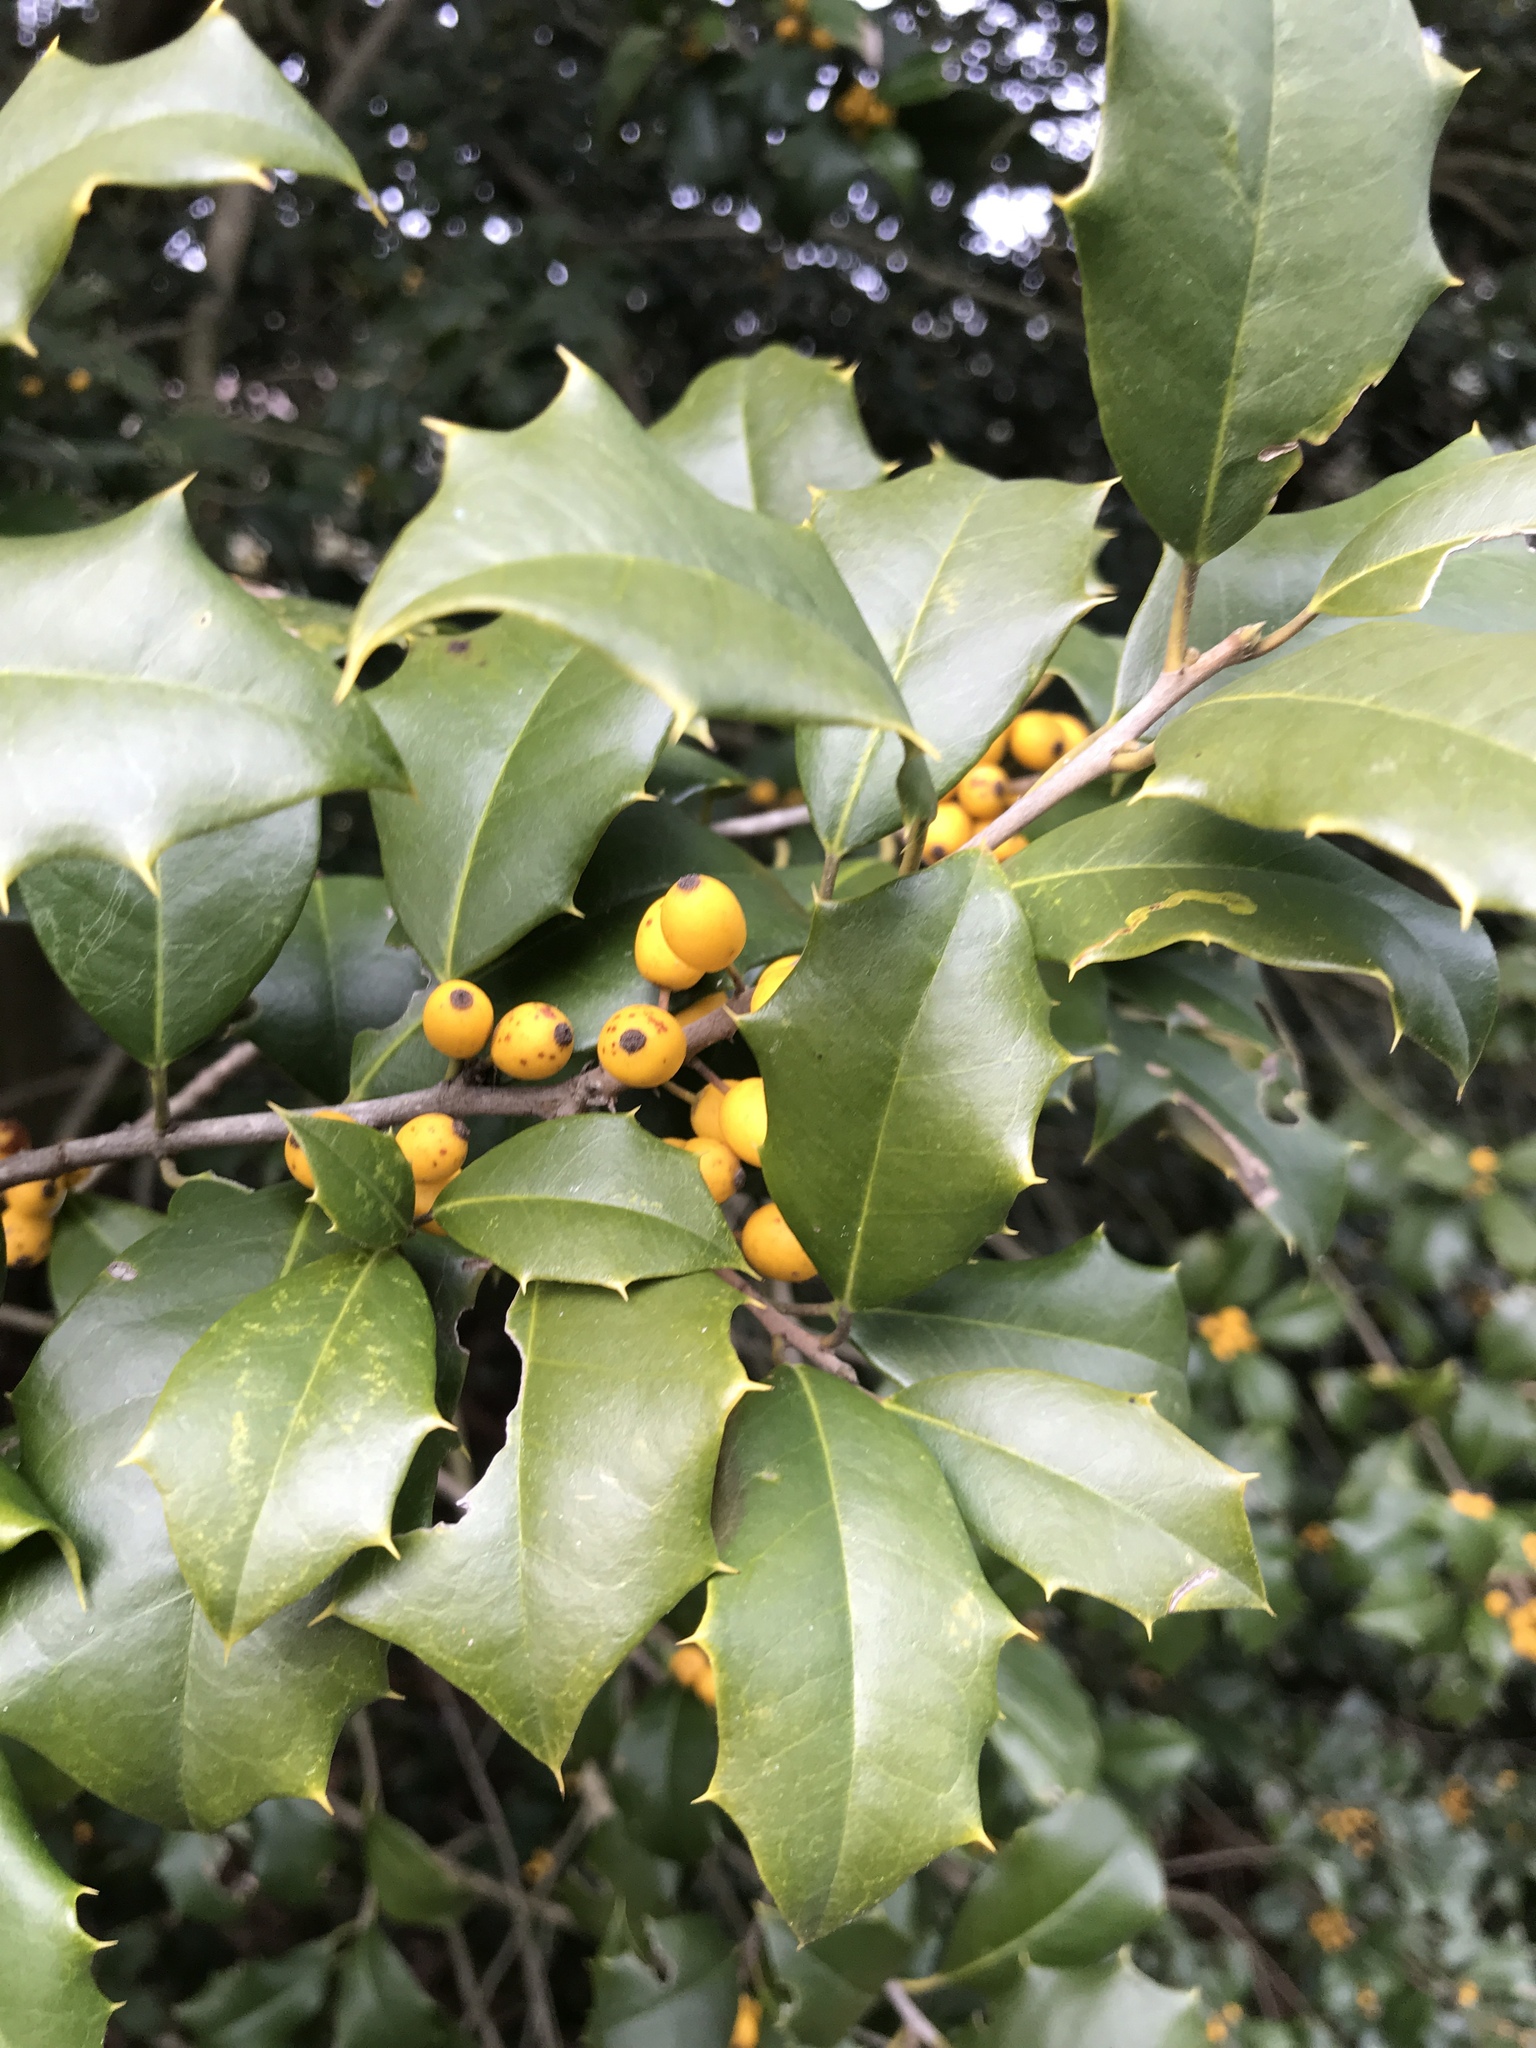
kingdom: Plantae
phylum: Tracheophyta
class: Magnoliopsida
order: Aquifoliales
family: Aquifoliaceae
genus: Ilex
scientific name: Ilex opaca
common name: American holly
